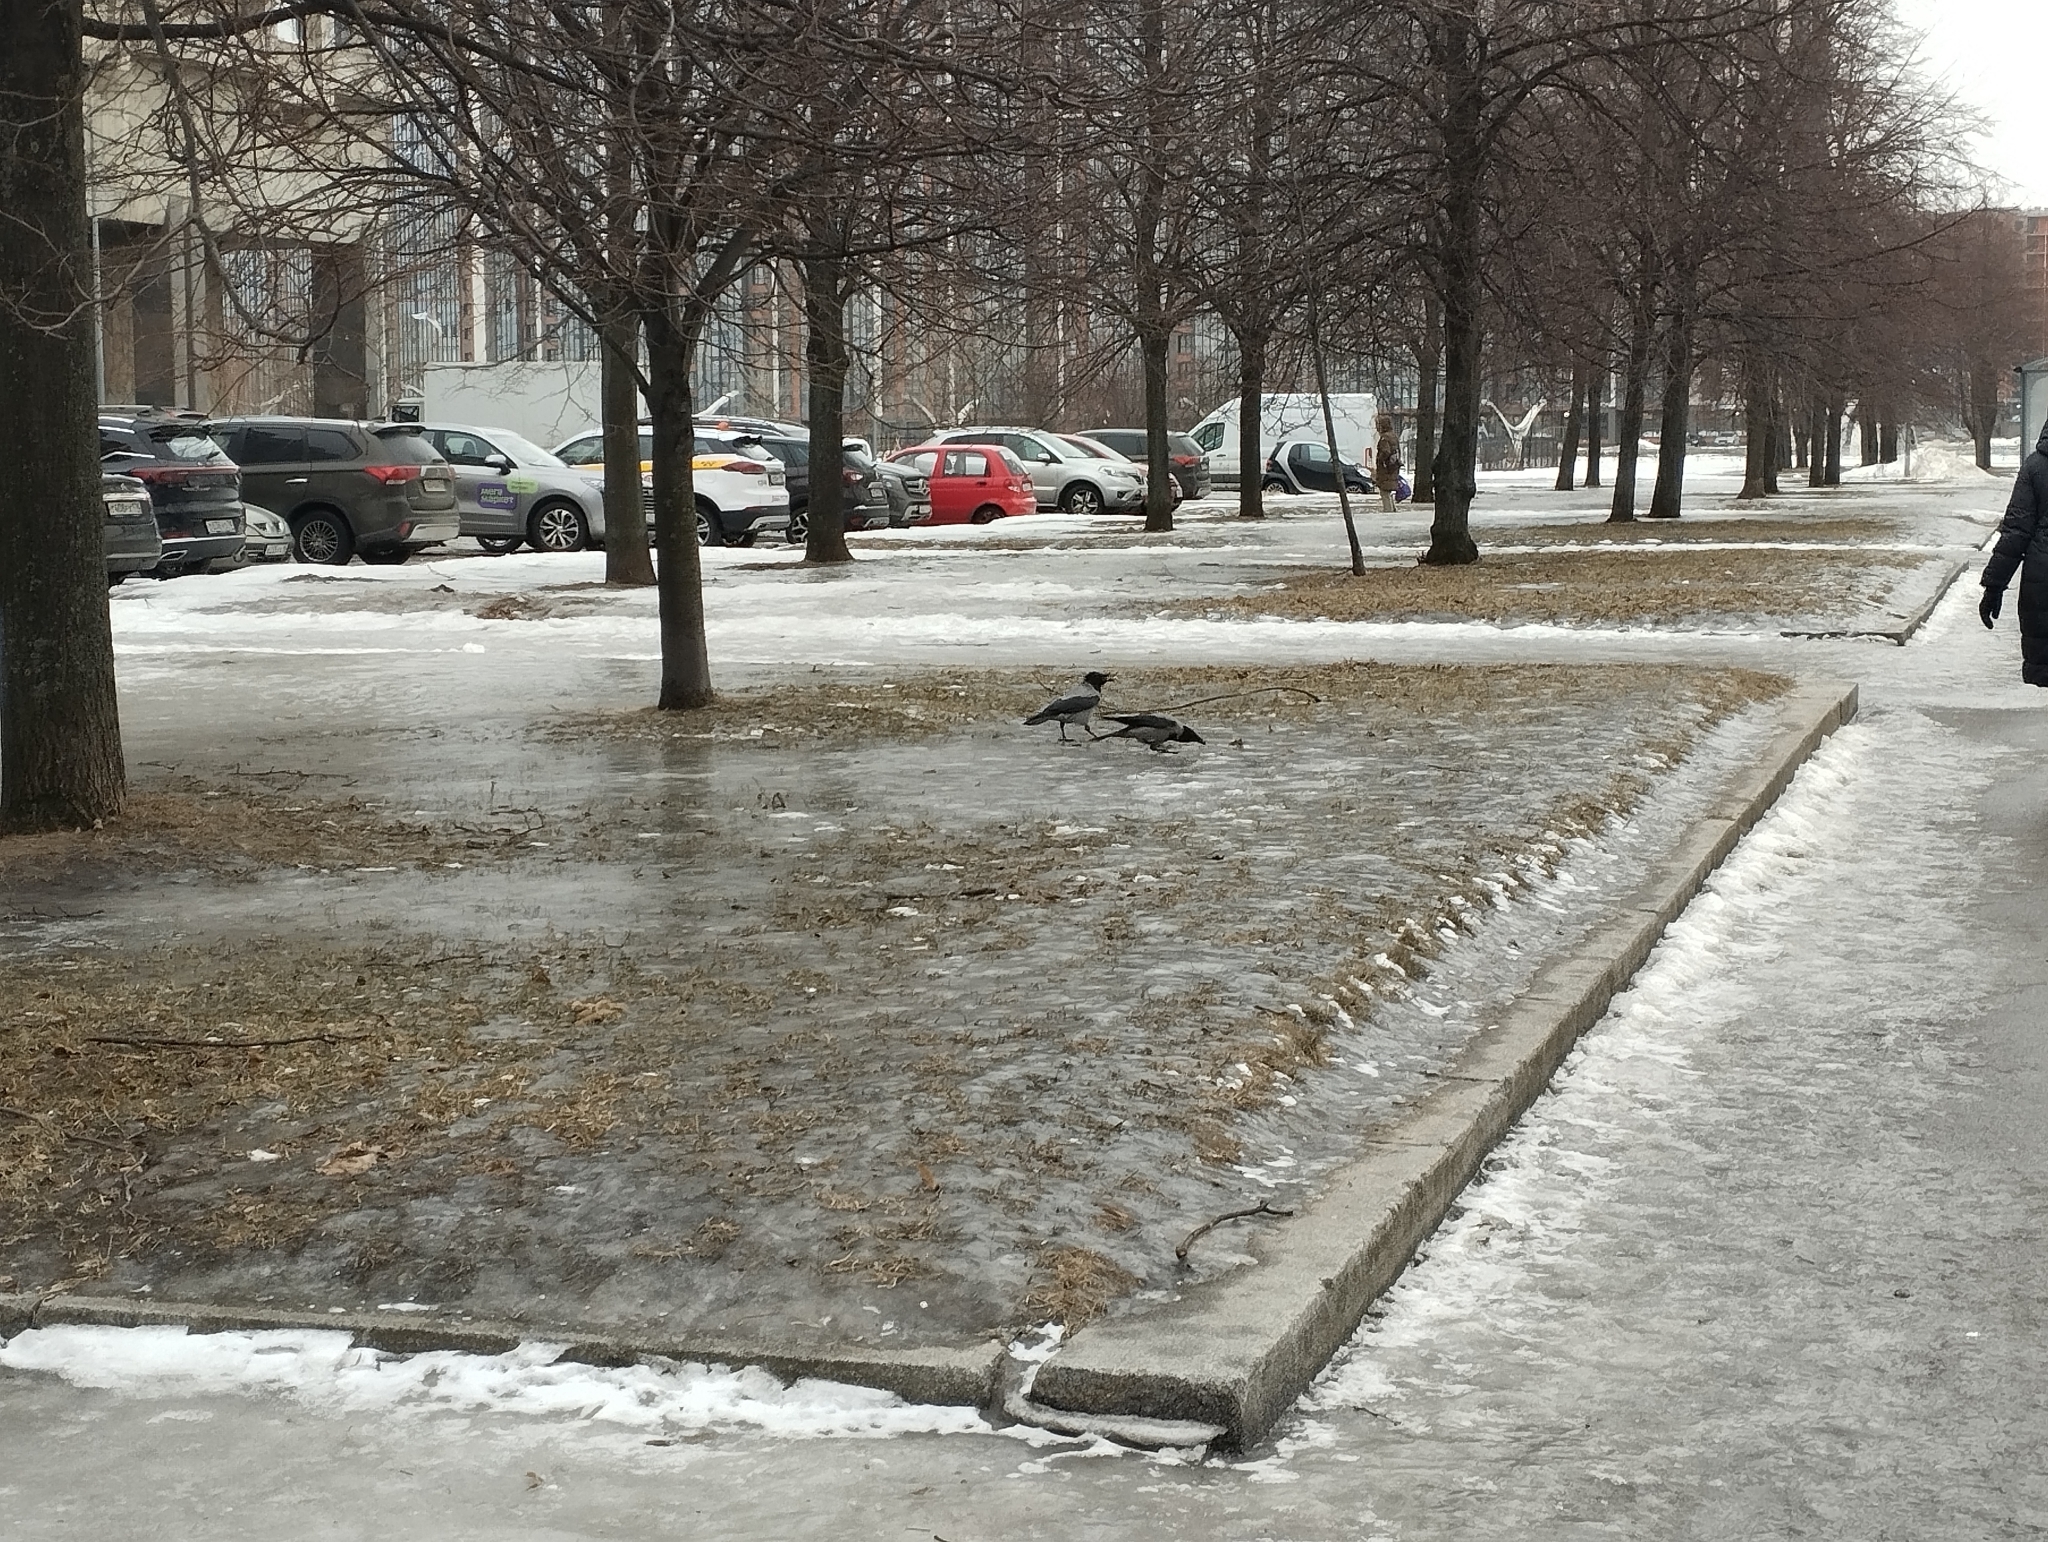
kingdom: Animalia
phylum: Chordata
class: Aves
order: Passeriformes
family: Corvidae
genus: Corvus
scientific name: Corvus cornix
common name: Hooded crow
